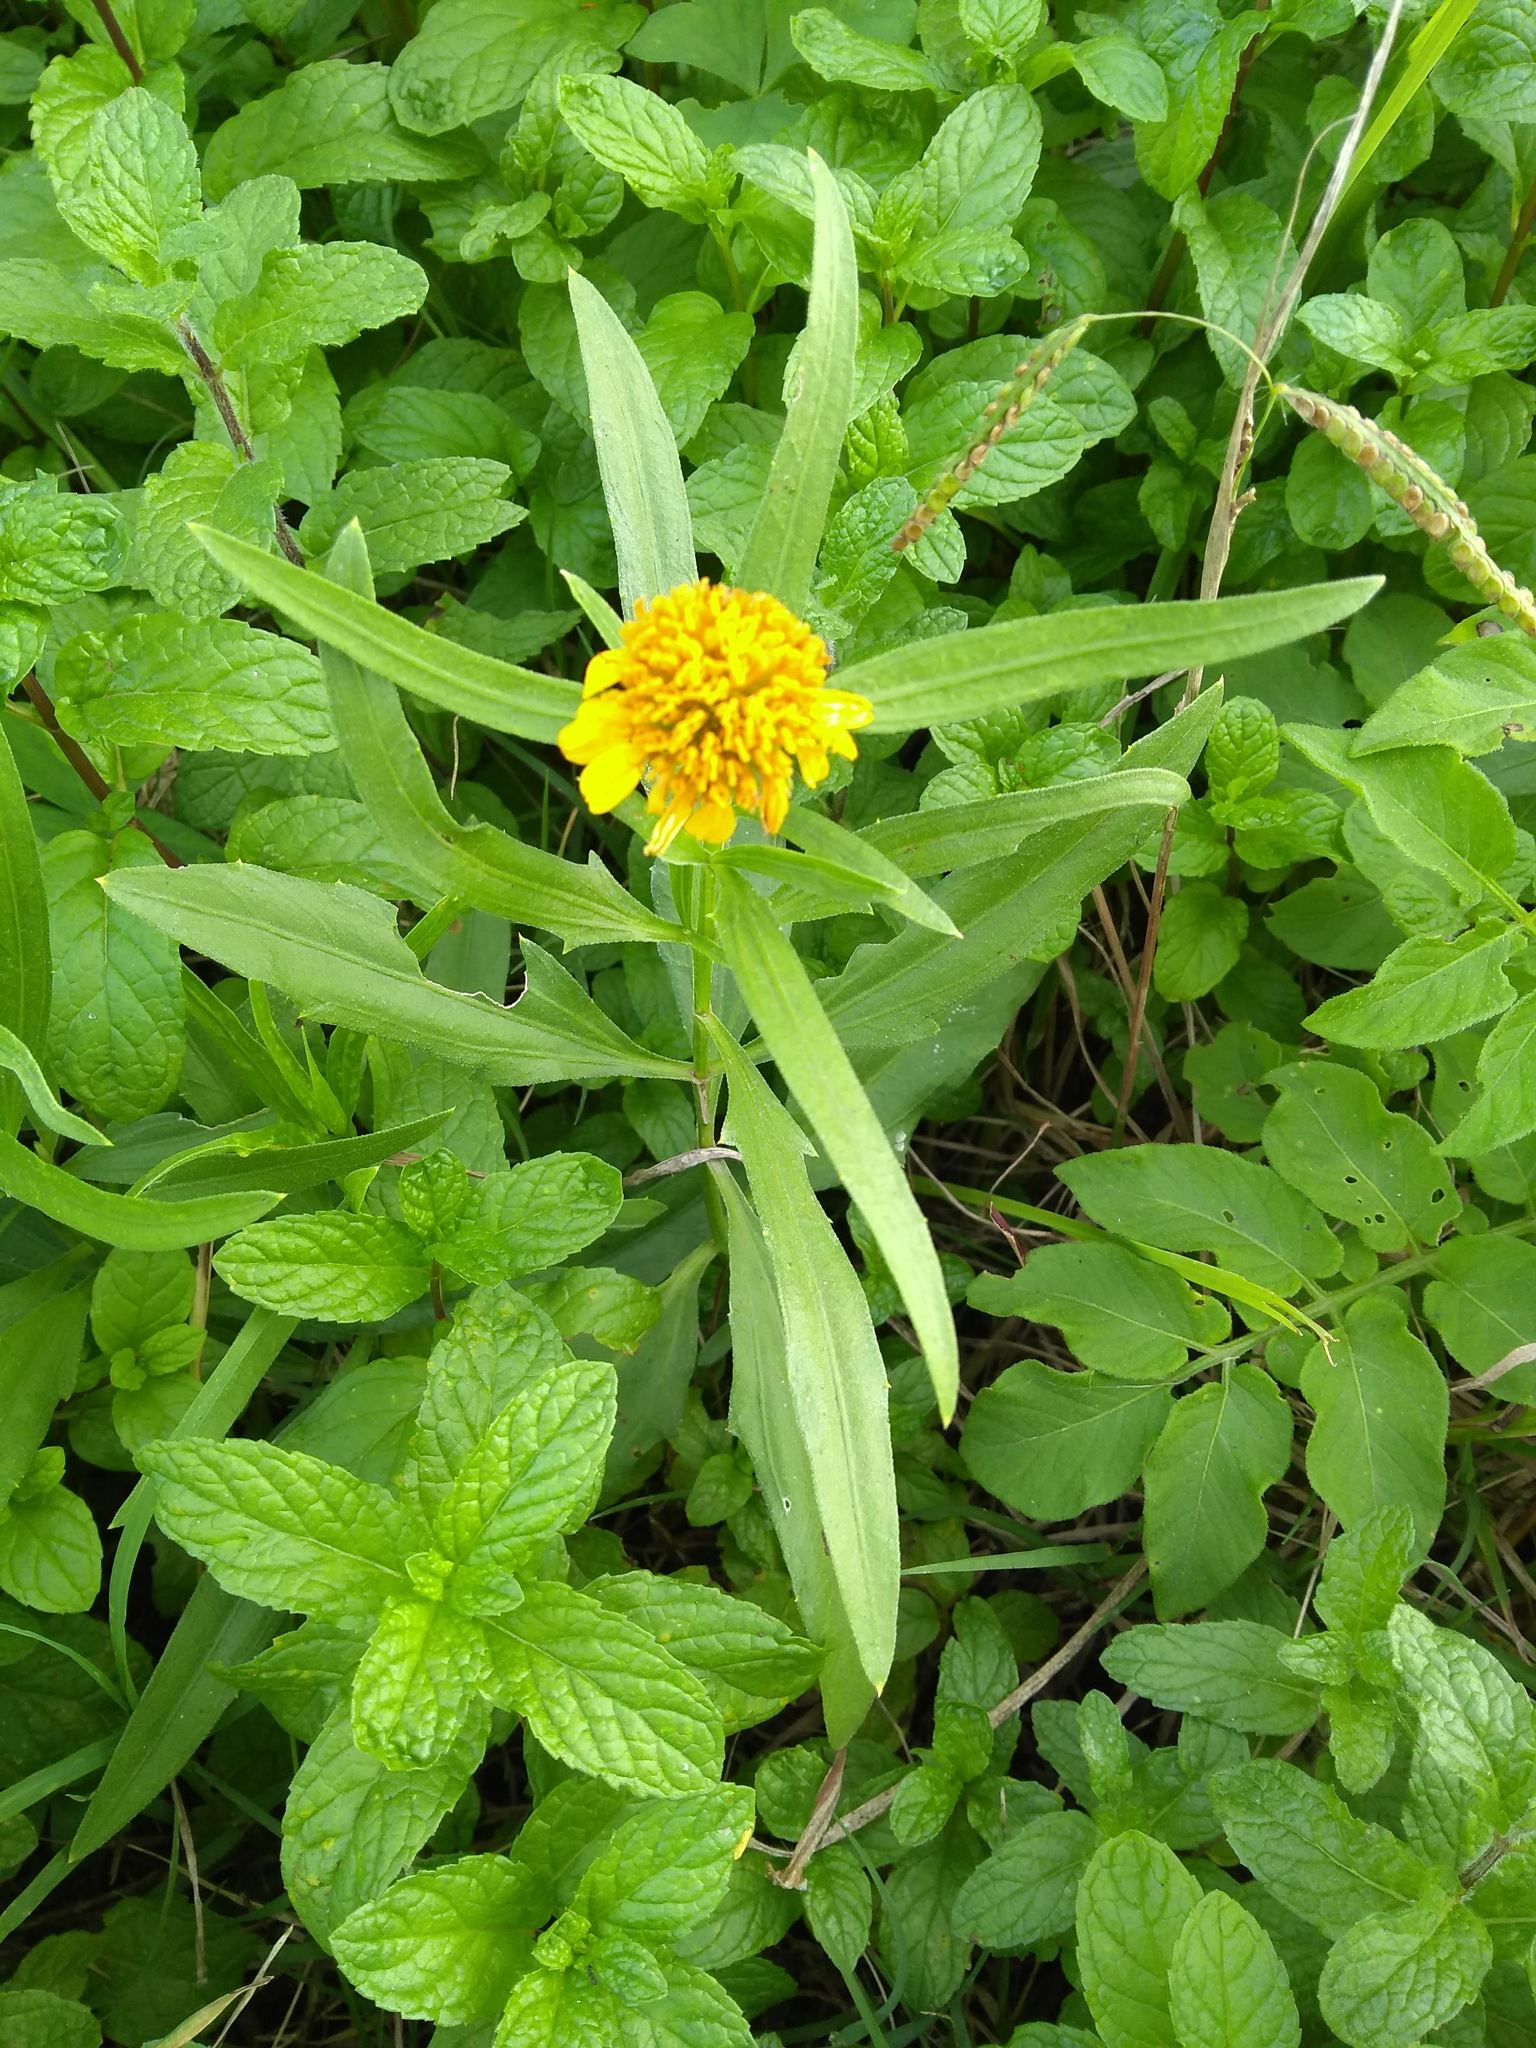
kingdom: Plantae
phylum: Tracheophyta
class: Magnoliopsida
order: Asterales
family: Asteraceae
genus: Pascalia
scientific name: Pascalia glauca
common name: Beach creeping oxeye
